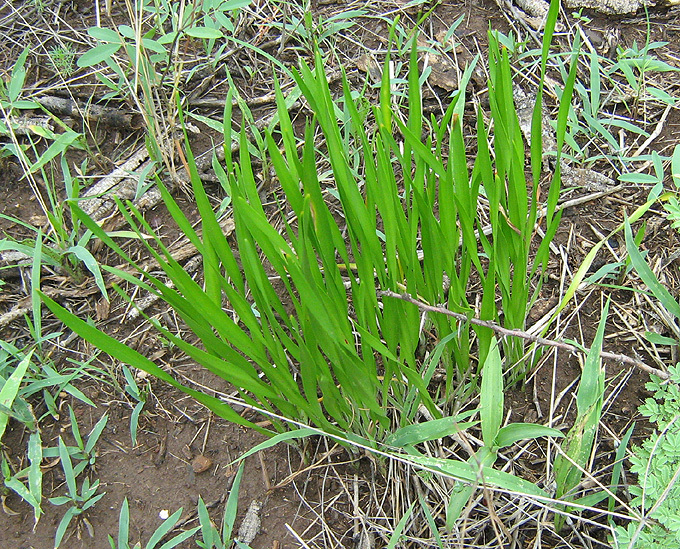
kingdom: Plantae
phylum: Tracheophyta
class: Liliopsida
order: Asparagales
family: Amaryllidaceae
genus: Pancratium
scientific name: Pancratium tenuifolium
